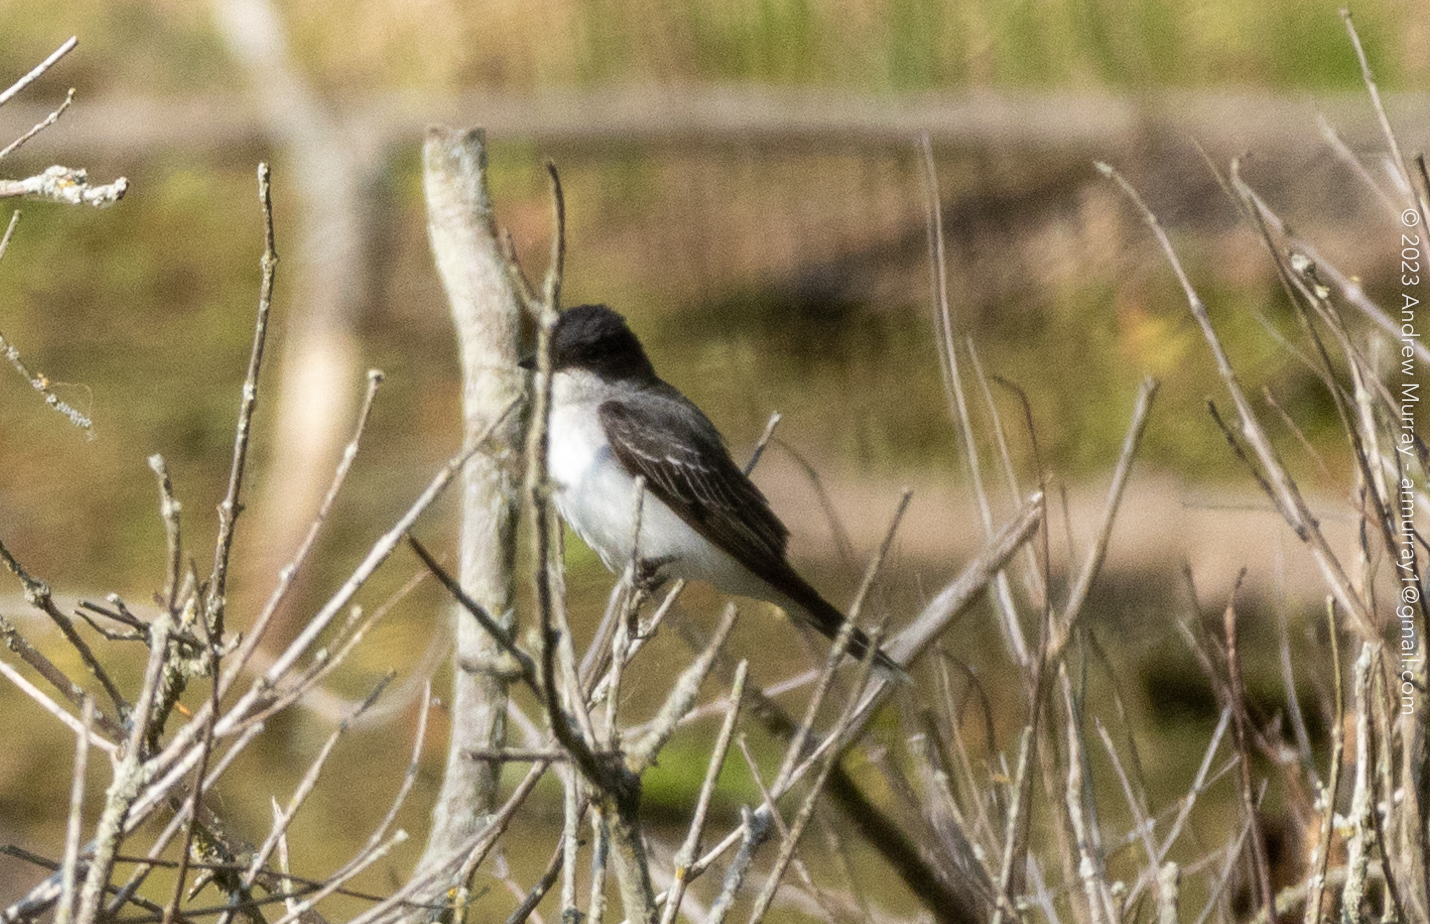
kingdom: Animalia
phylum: Chordata
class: Aves
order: Passeriformes
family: Tyrannidae
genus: Tyrannus
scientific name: Tyrannus tyrannus
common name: Eastern kingbird
